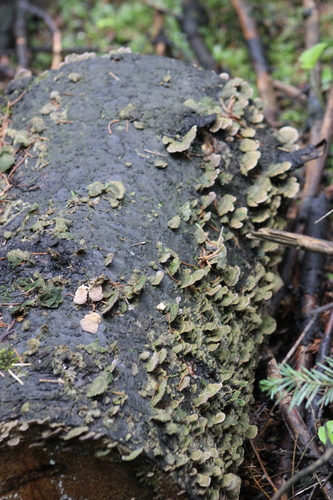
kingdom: Fungi
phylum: Basidiomycota
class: Agaricomycetes
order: Hymenochaetales
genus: Trichaptum
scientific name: Trichaptum abietinum
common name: Purplepore bracket
